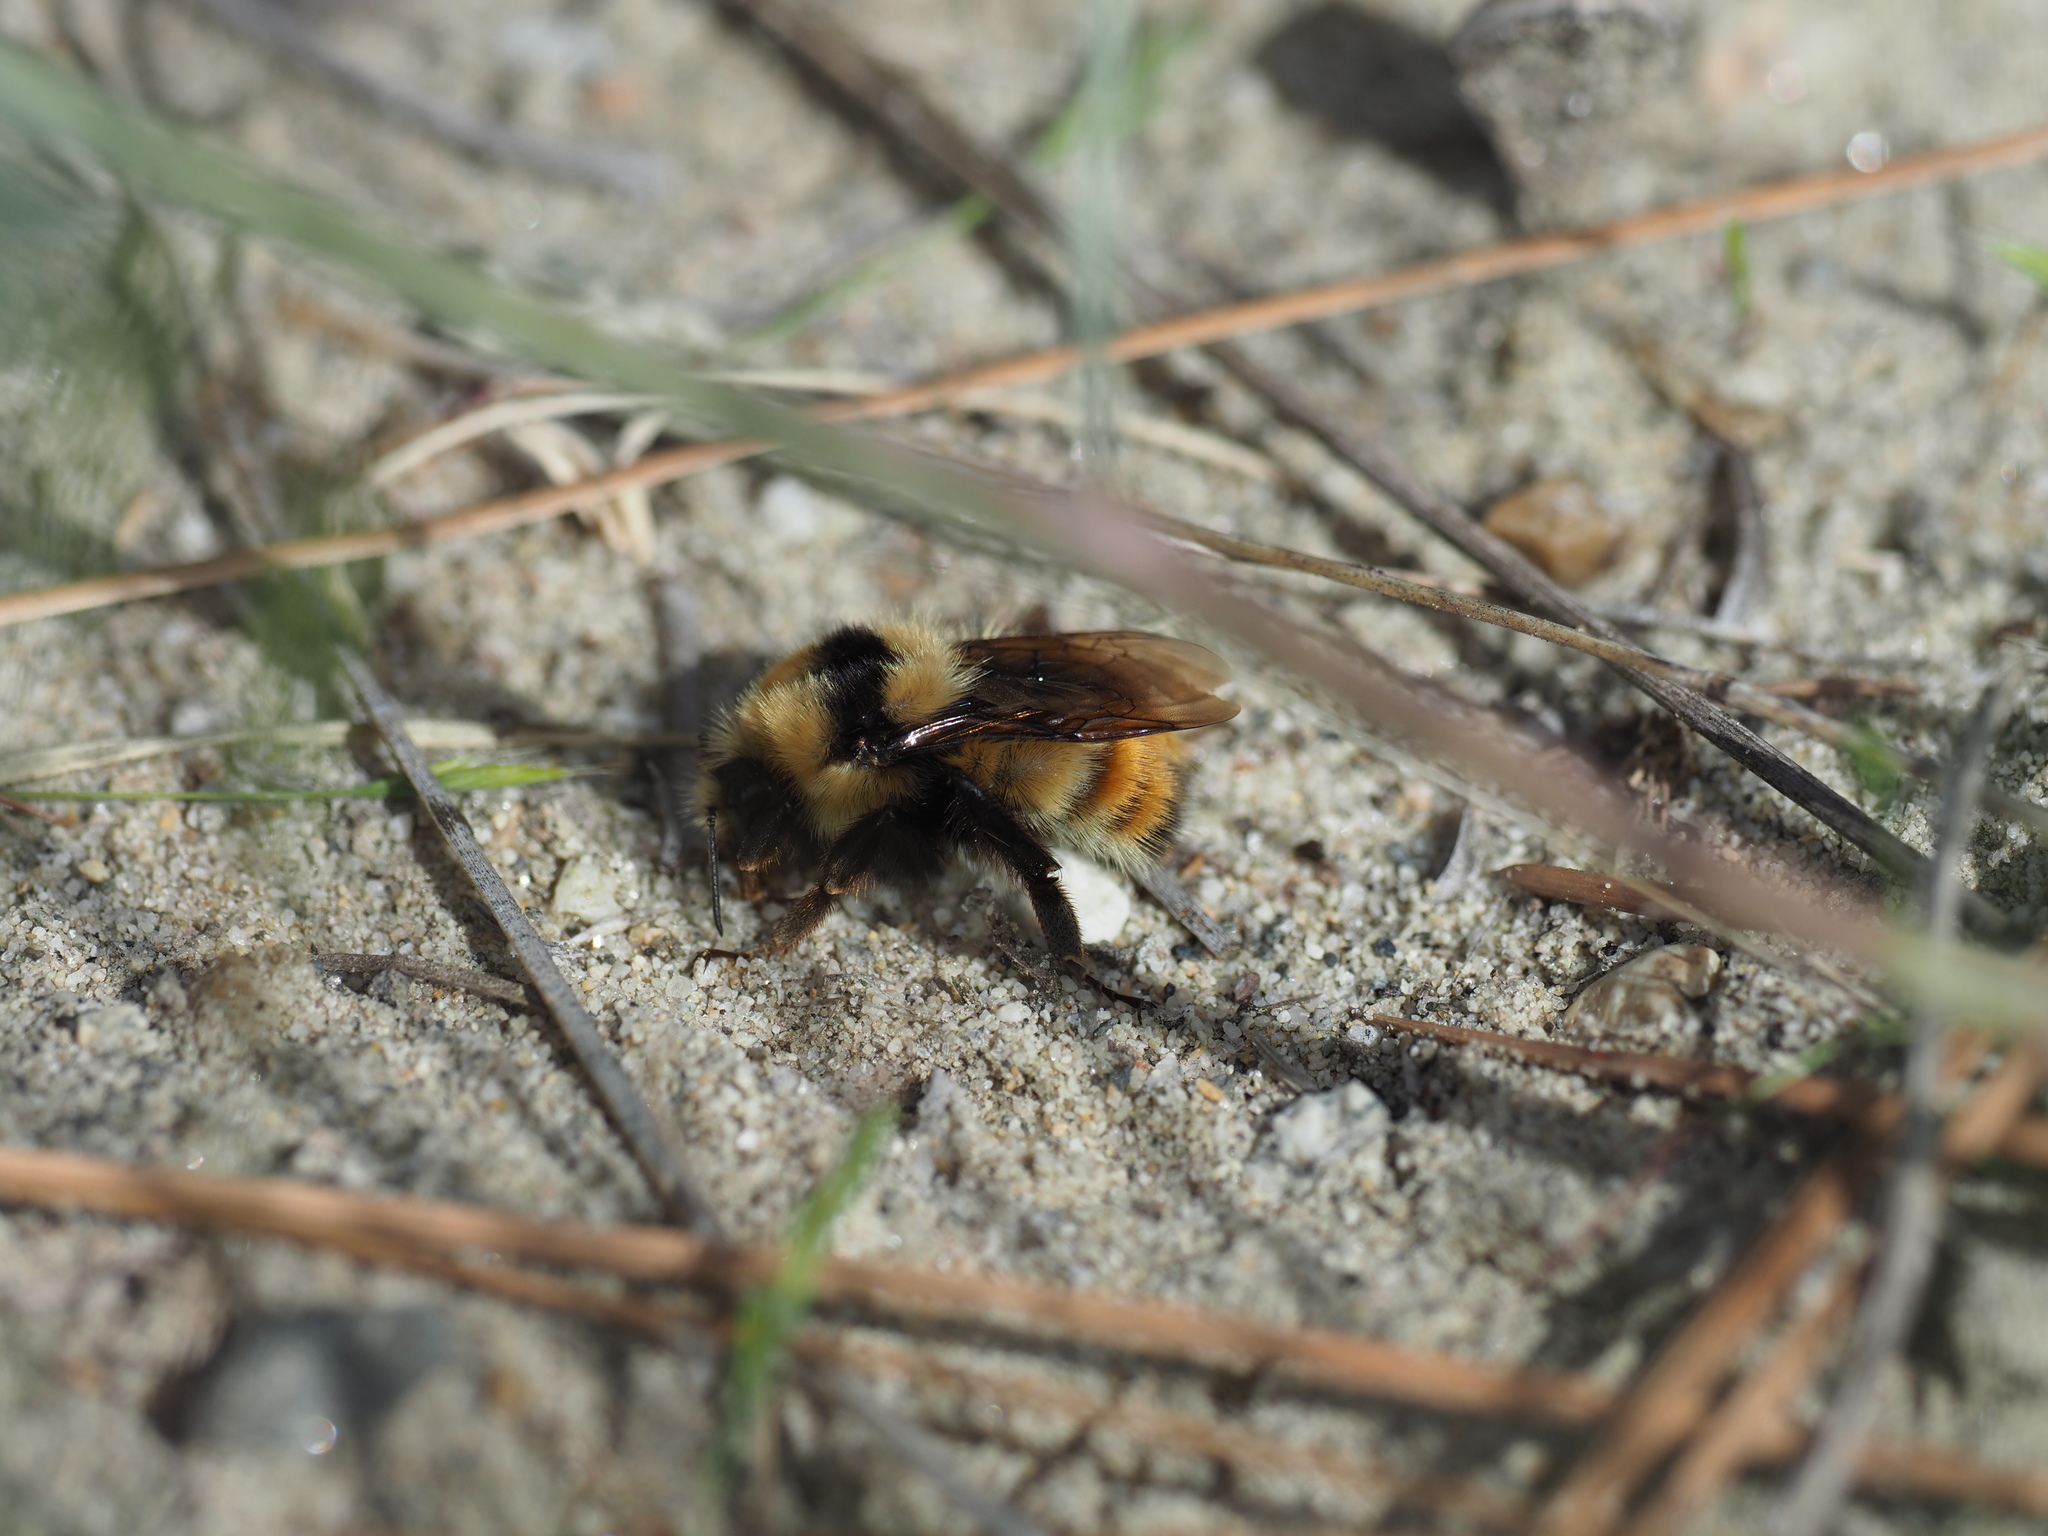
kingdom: Animalia
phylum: Arthropoda
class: Insecta
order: Hymenoptera
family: Apidae
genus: Bombus
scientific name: Bombus centralis
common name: Central bumble bee
